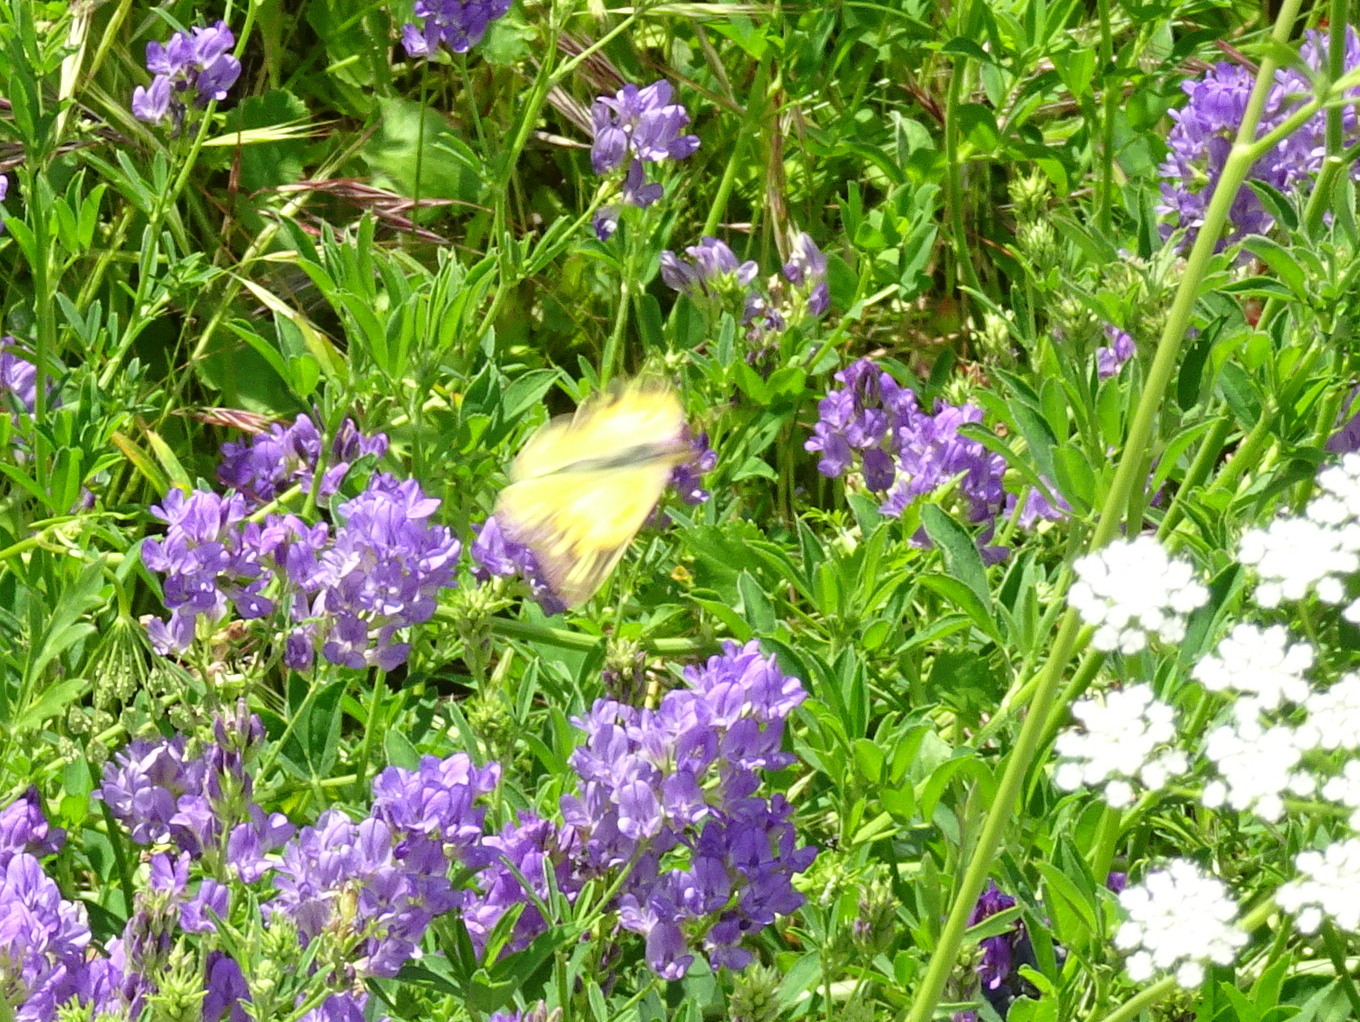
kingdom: Animalia
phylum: Arthropoda
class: Insecta
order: Lepidoptera
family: Pieridae
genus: Colias
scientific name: Colias croceus
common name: Clouded yellow
